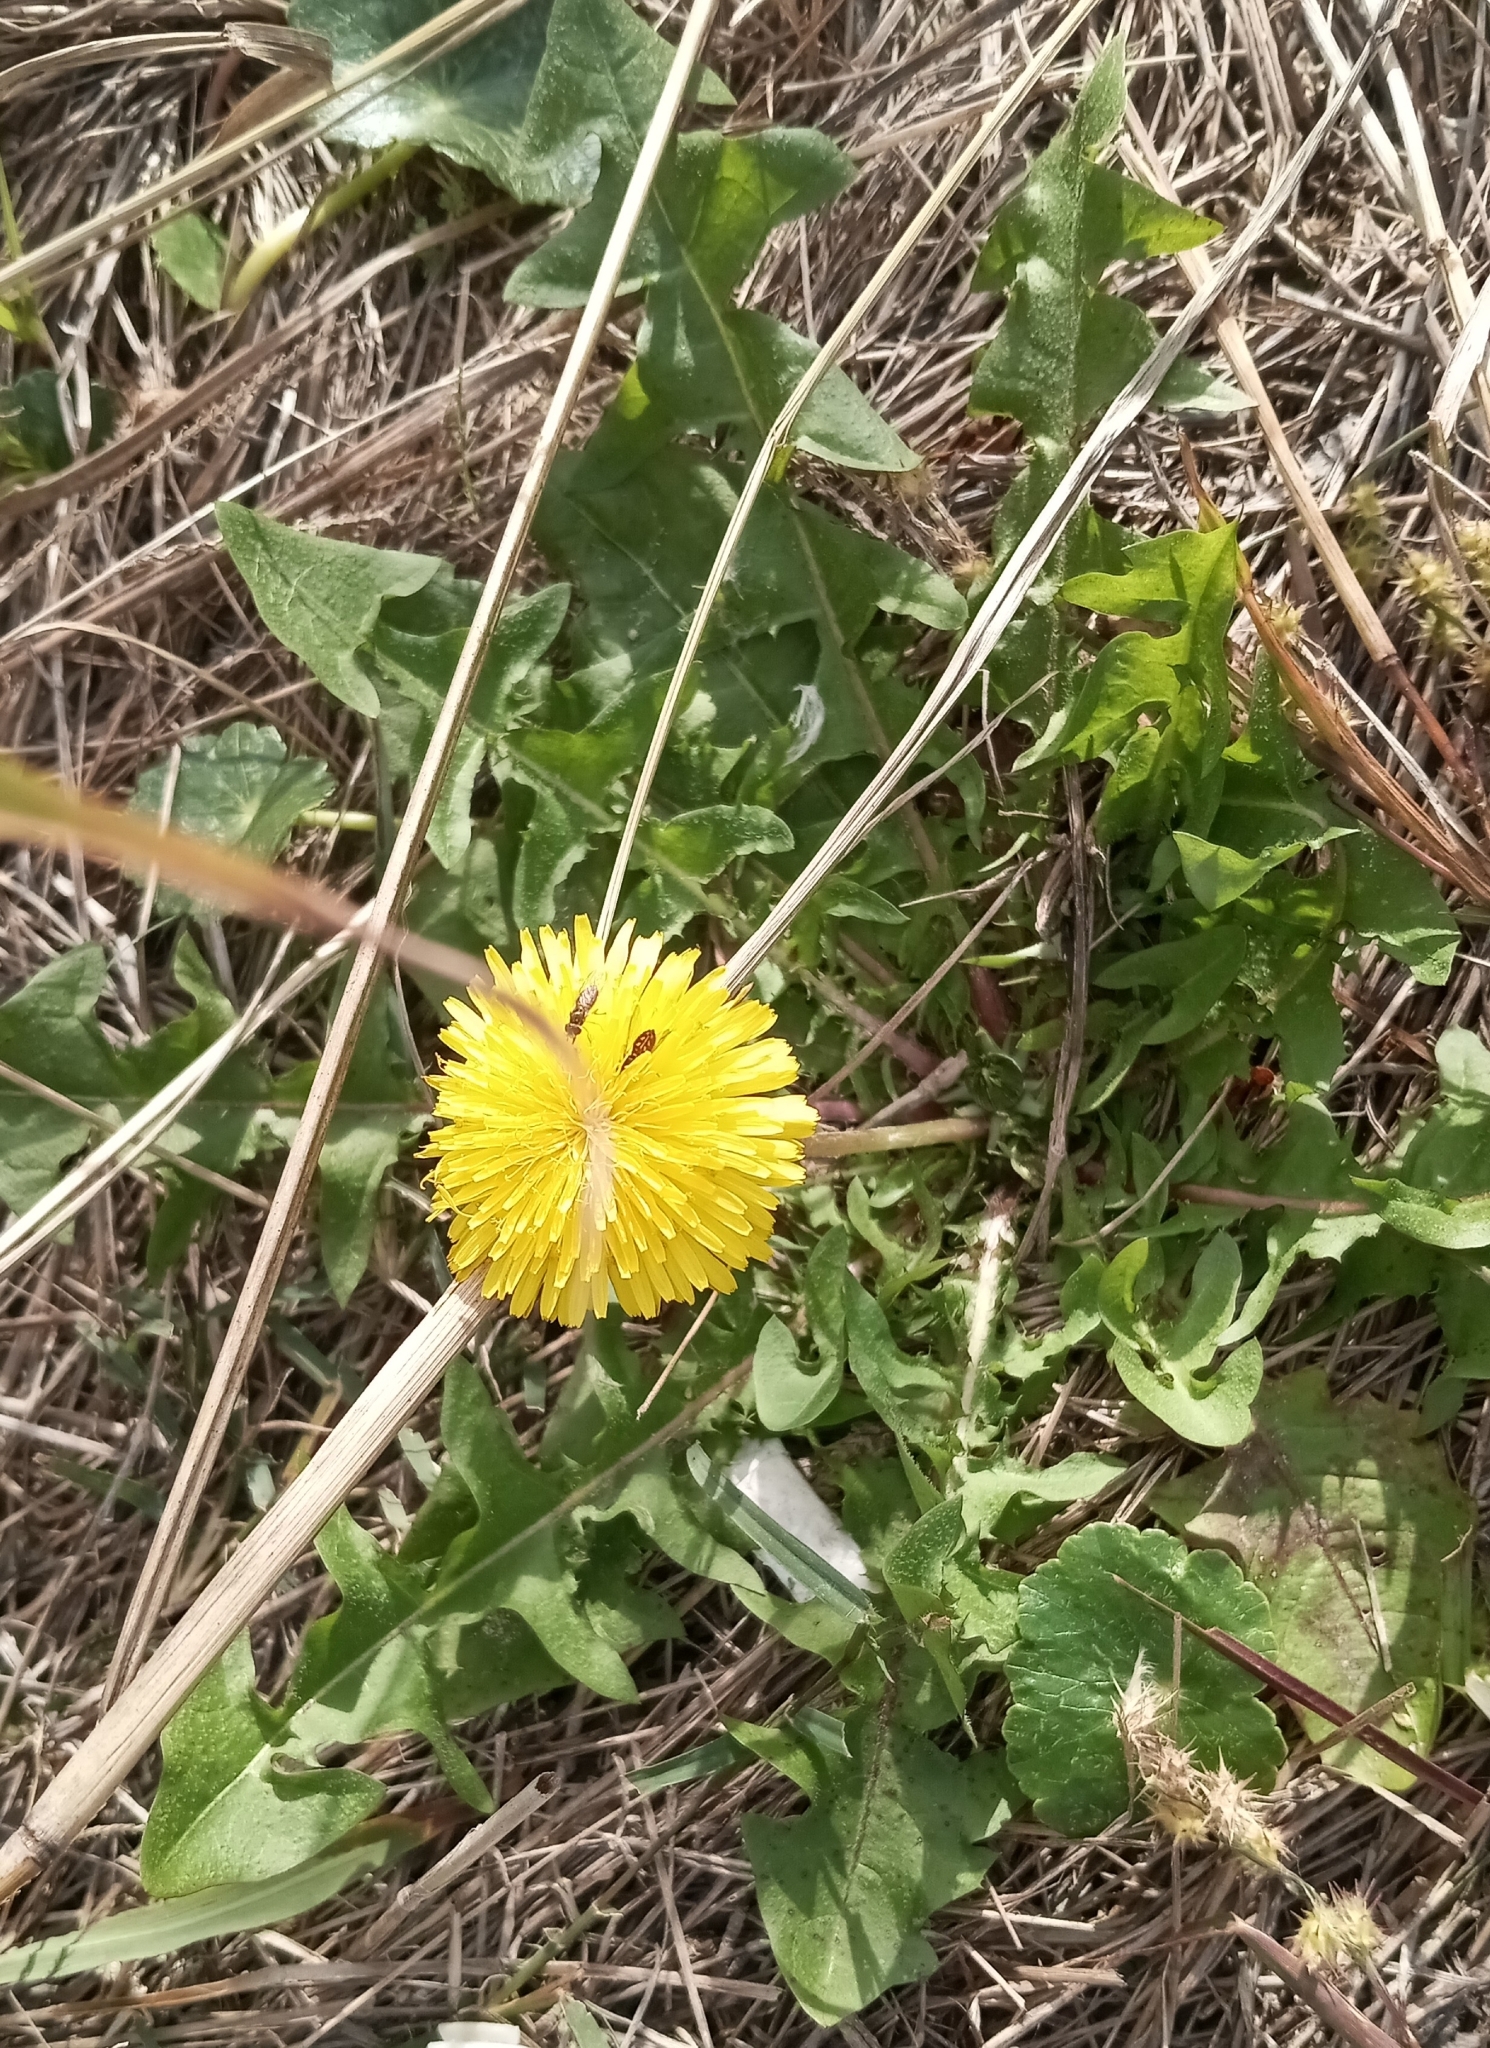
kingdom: Plantae
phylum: Tracheophyta
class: Magnoliopsida
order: Asterales
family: Asteraceae
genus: Taraxacum
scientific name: Taraxacum erythrospermum
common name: Rock dandelion
